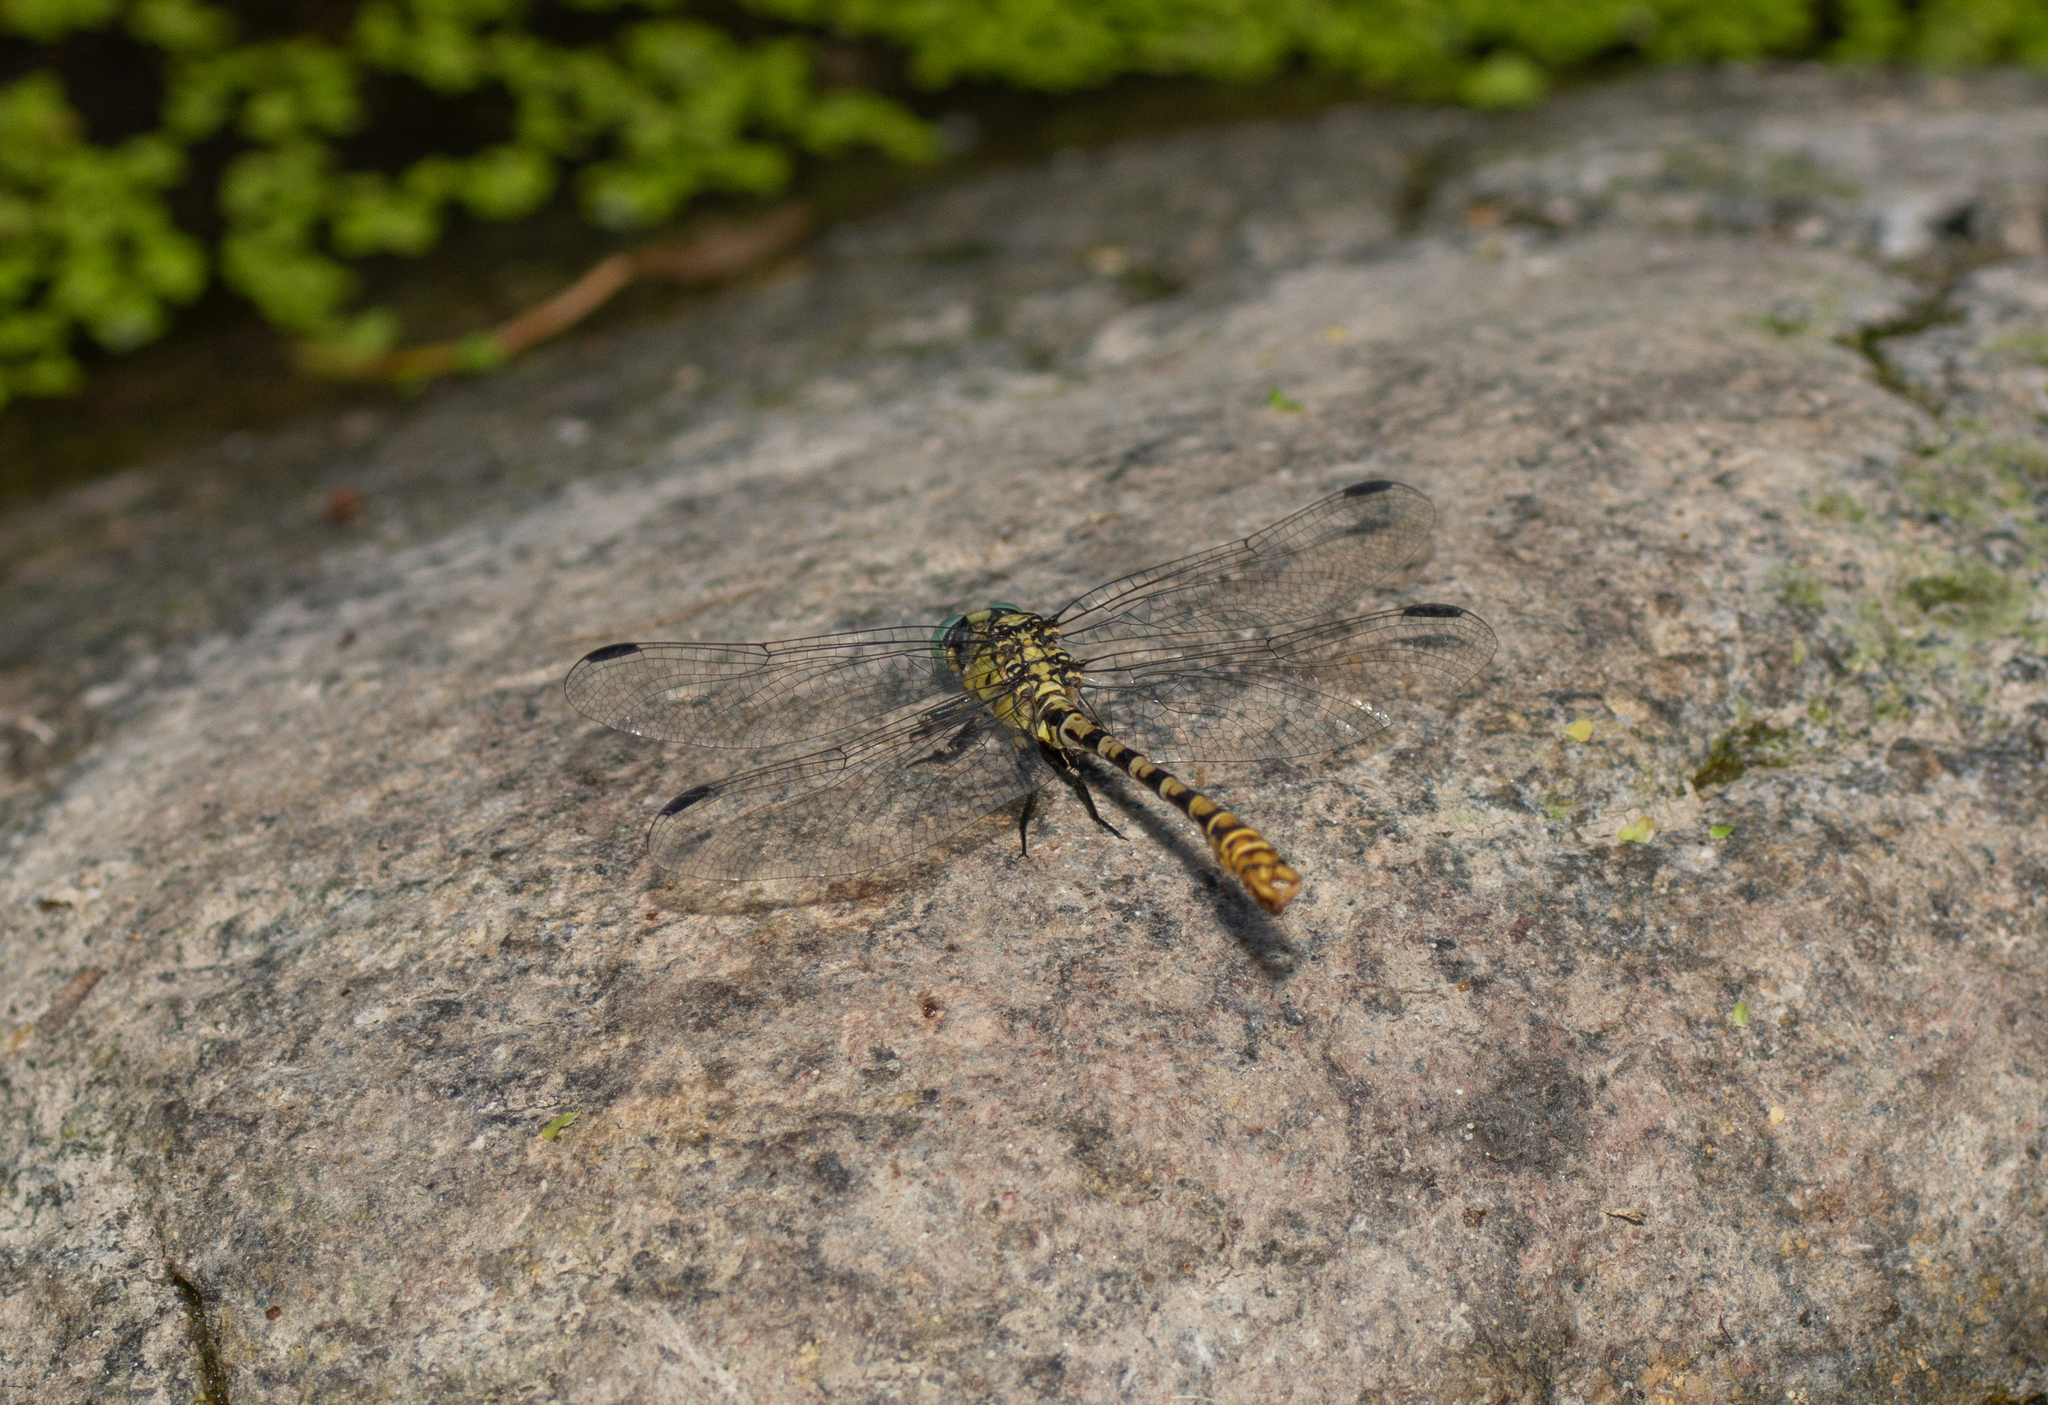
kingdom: Animalia
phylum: Arthropoda
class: Insecta
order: Odonata
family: Gomphidae
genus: Onychogomphus
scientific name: Onychogomphus forcipatus
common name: Small pincertail
